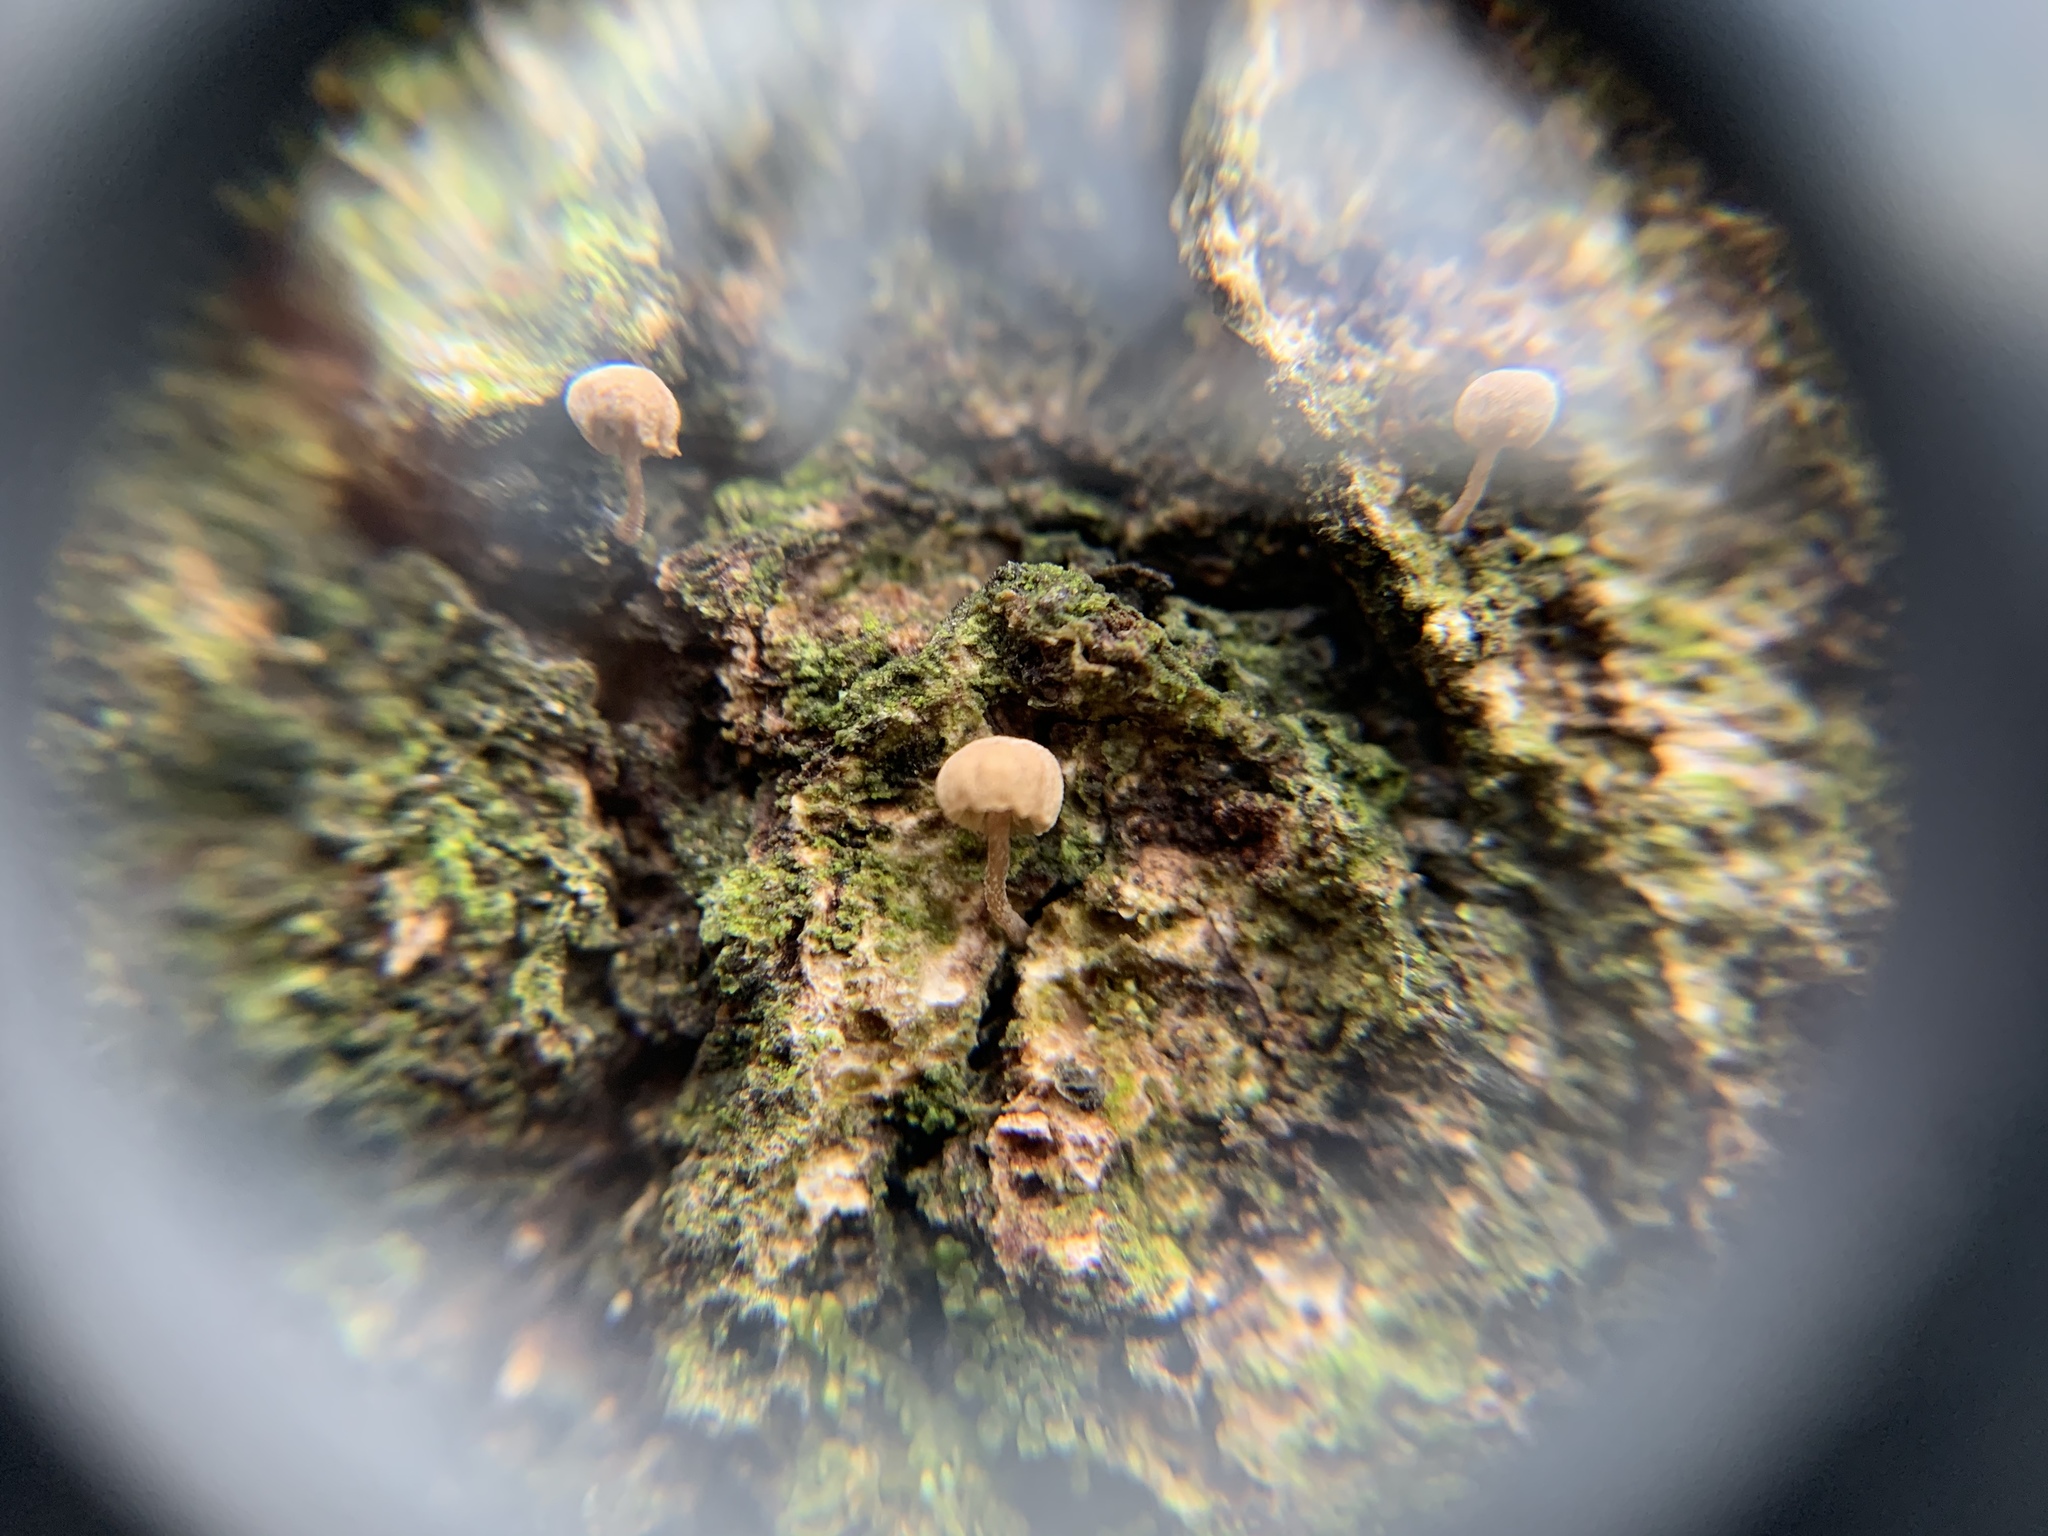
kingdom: Fungi
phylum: Basidiomycota
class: Agaricomycetes
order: Agaricales
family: Mycenaceae
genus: Mycena
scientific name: Mycena corticola
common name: Bark mycena
